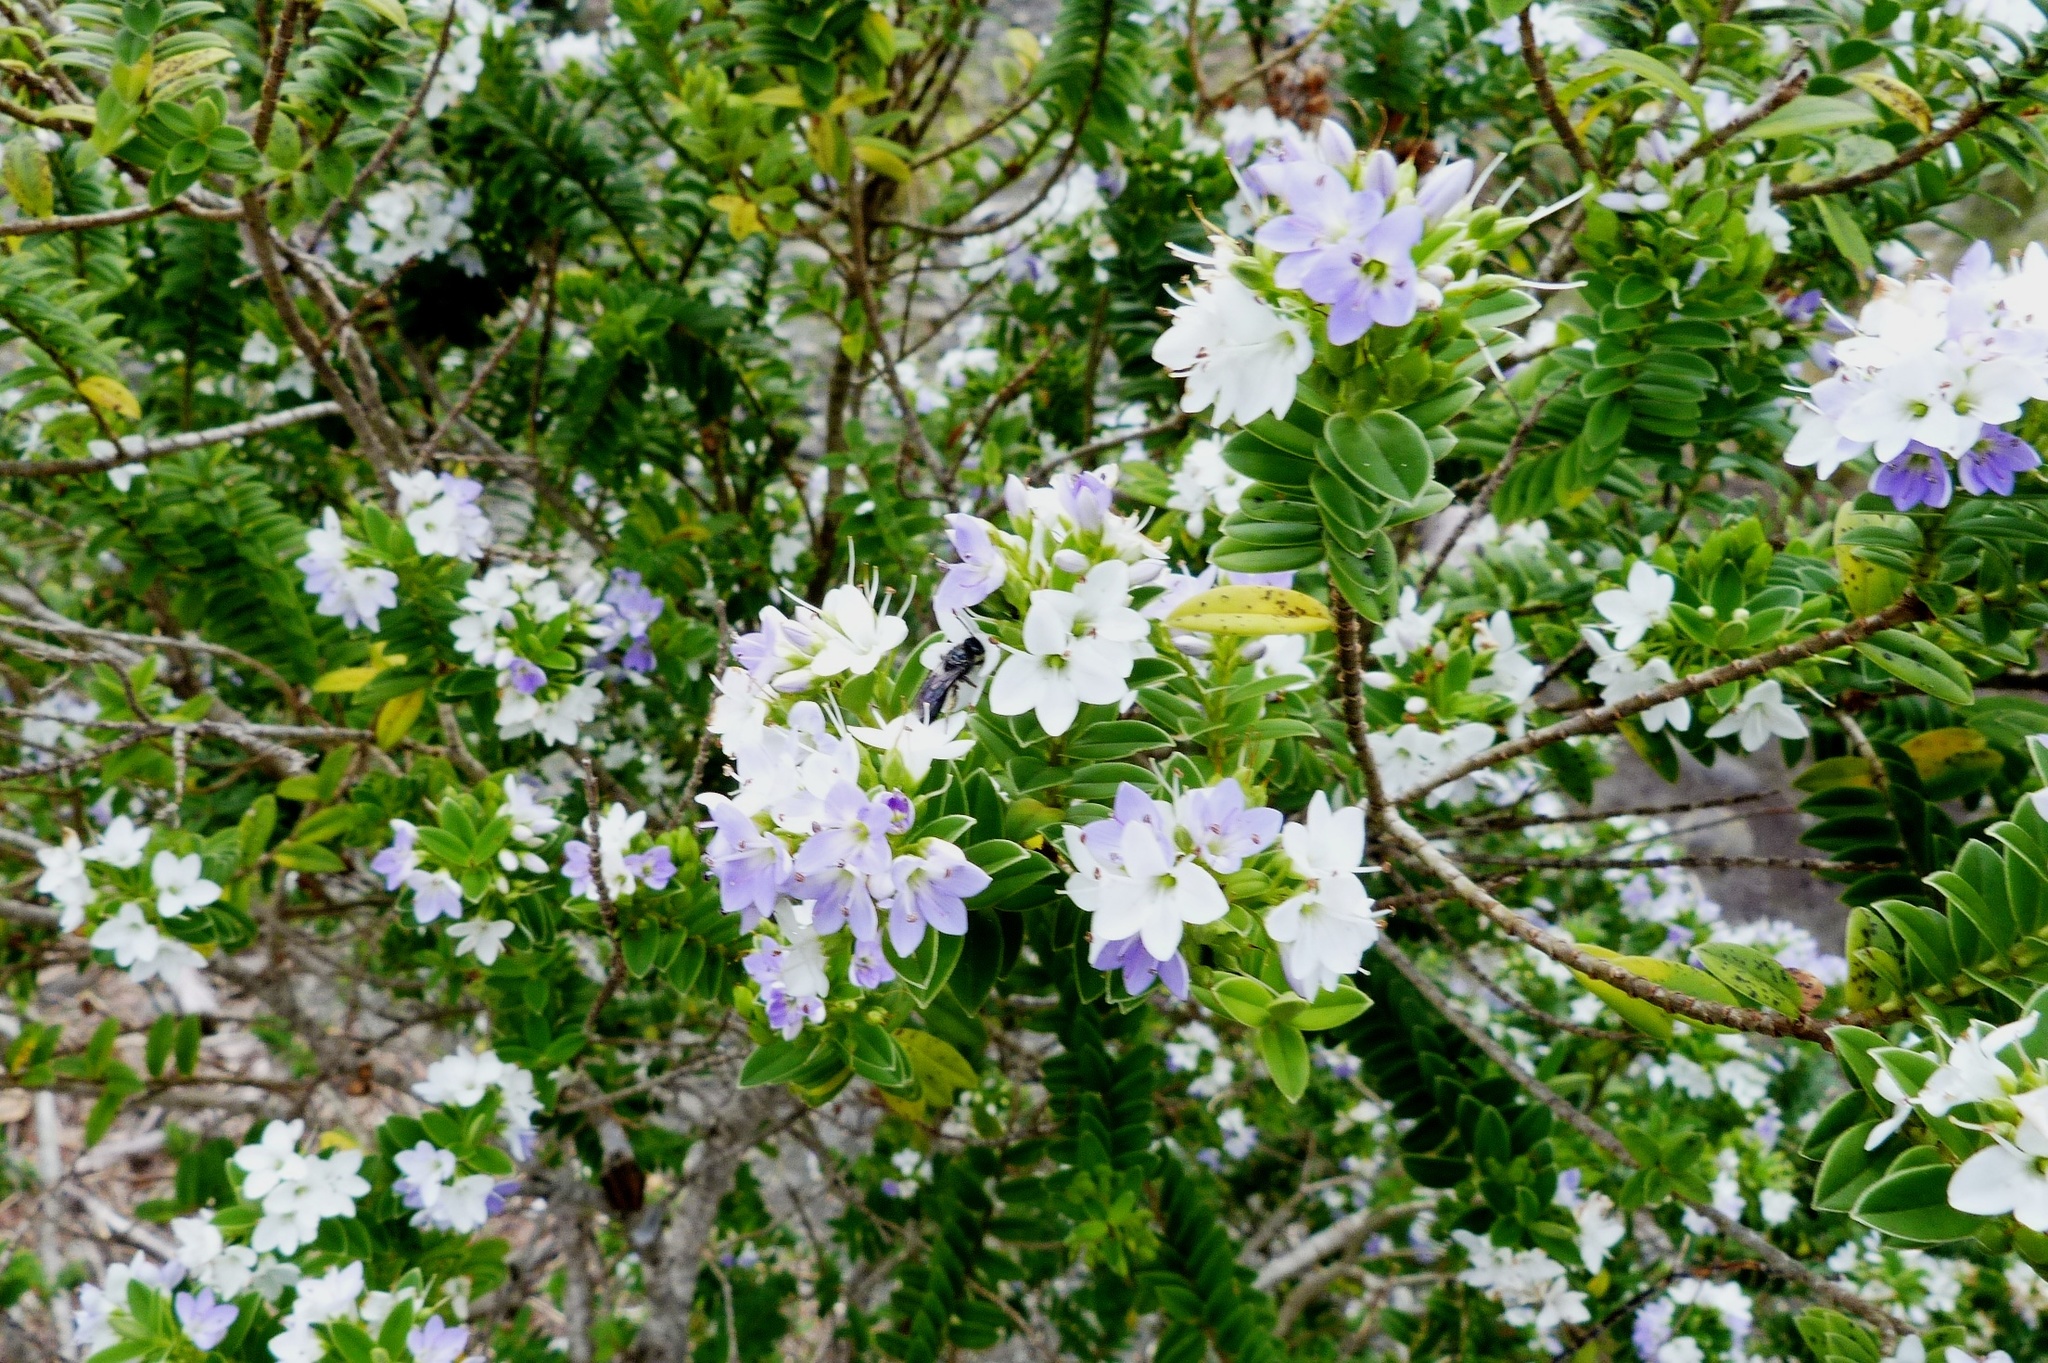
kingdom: Plantae
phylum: Tracheophyta
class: Magnoliopsida
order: Lamiales
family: Plantaginaceae
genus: Veronica
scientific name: Veronica elliptica
